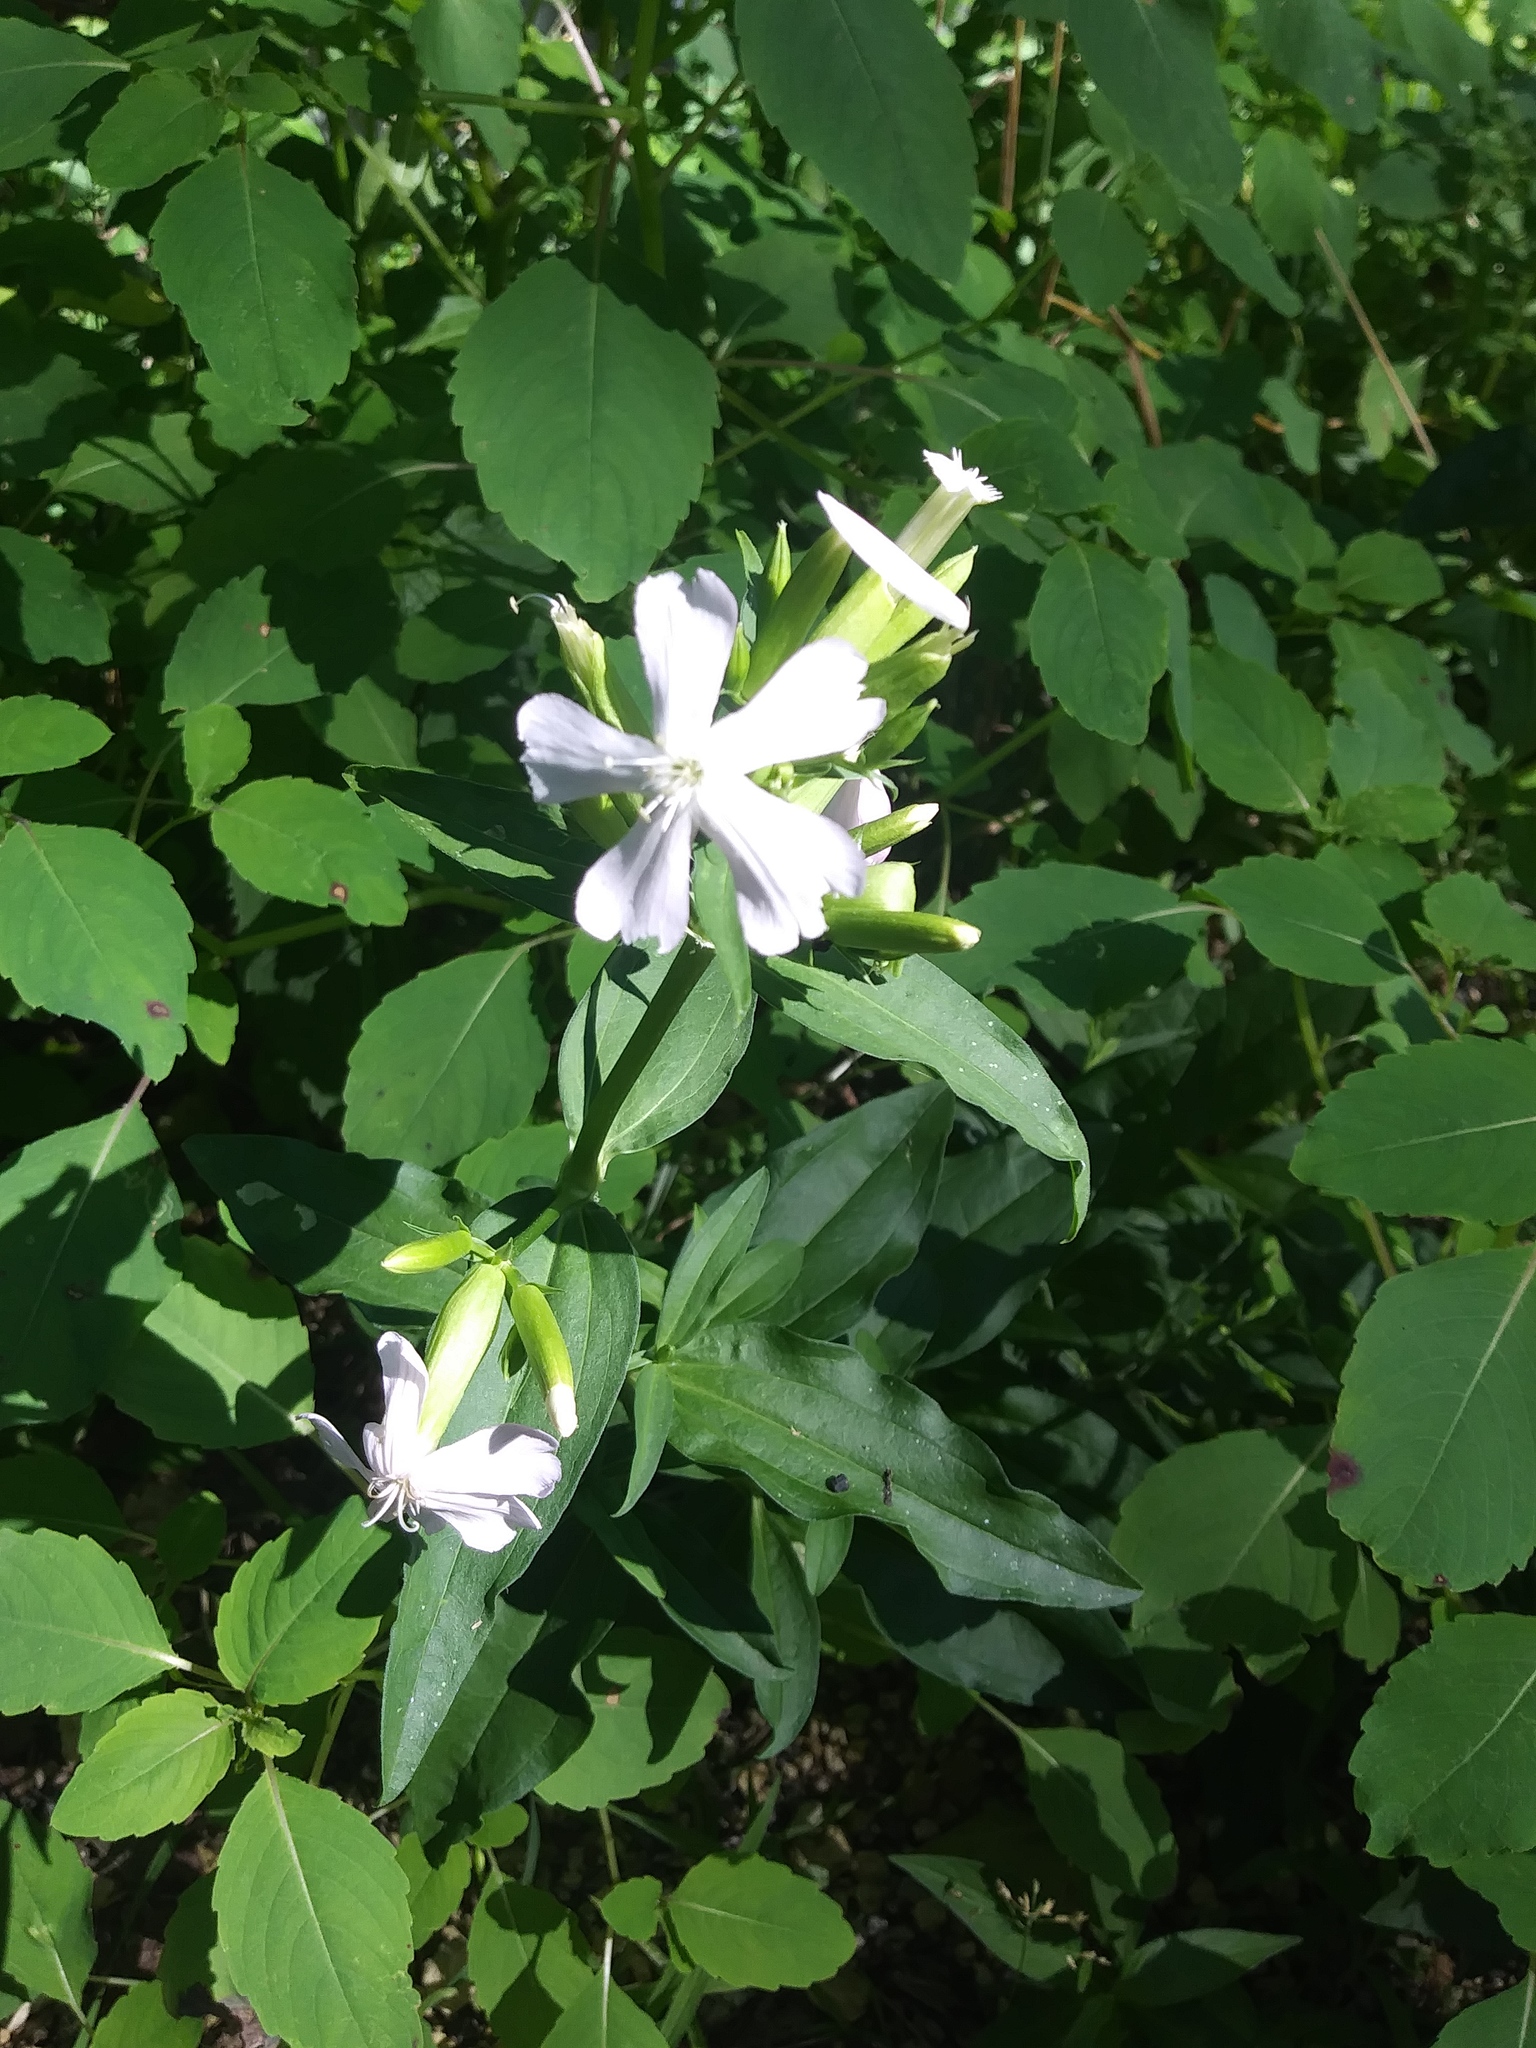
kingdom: Plantae
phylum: Tracheophyta
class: Magnoliopsida
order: Caryophyllales
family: Caryophyllaceae
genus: Saponaria
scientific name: Saponaria officinalis
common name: Soapwort
